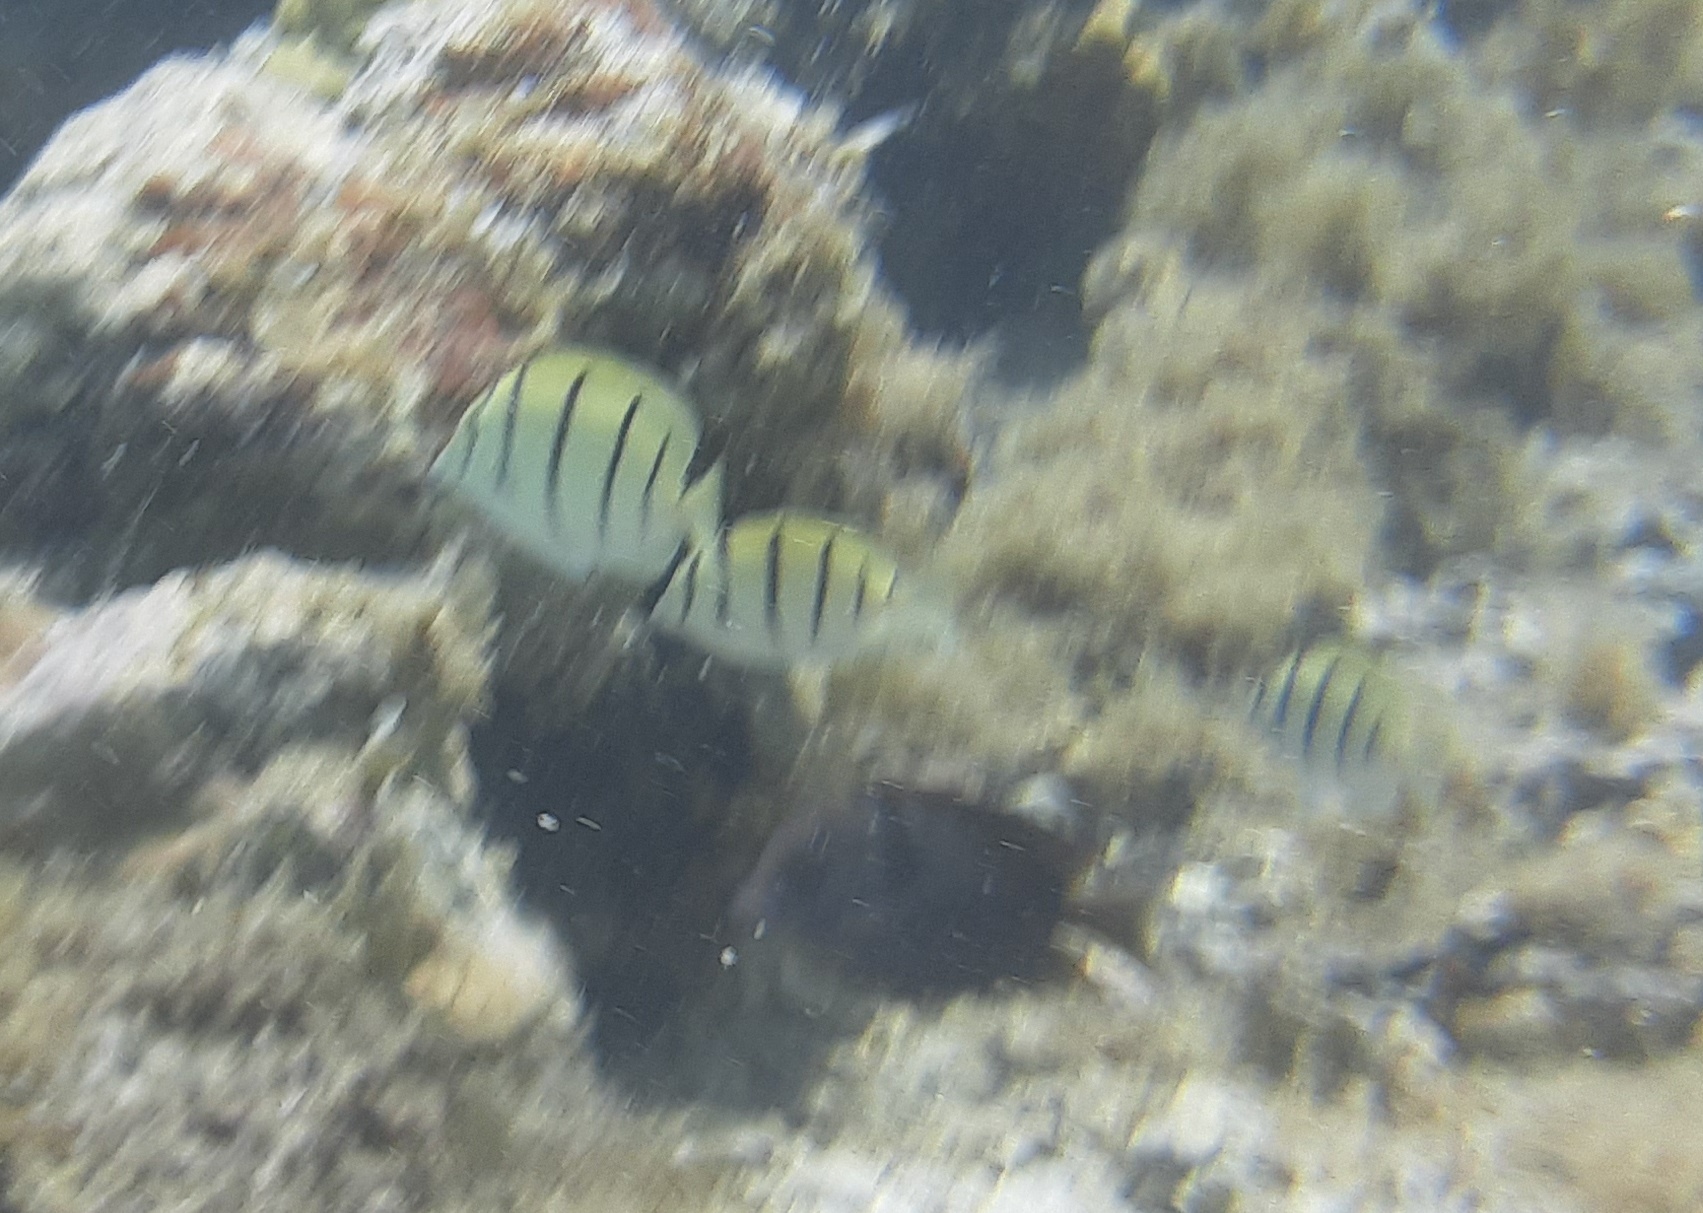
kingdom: Animalia
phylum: Chordata
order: Perciformes
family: Acanthuridae
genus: Acanthurus
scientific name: Acanthurus triostegus
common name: Convict surgeonfish
